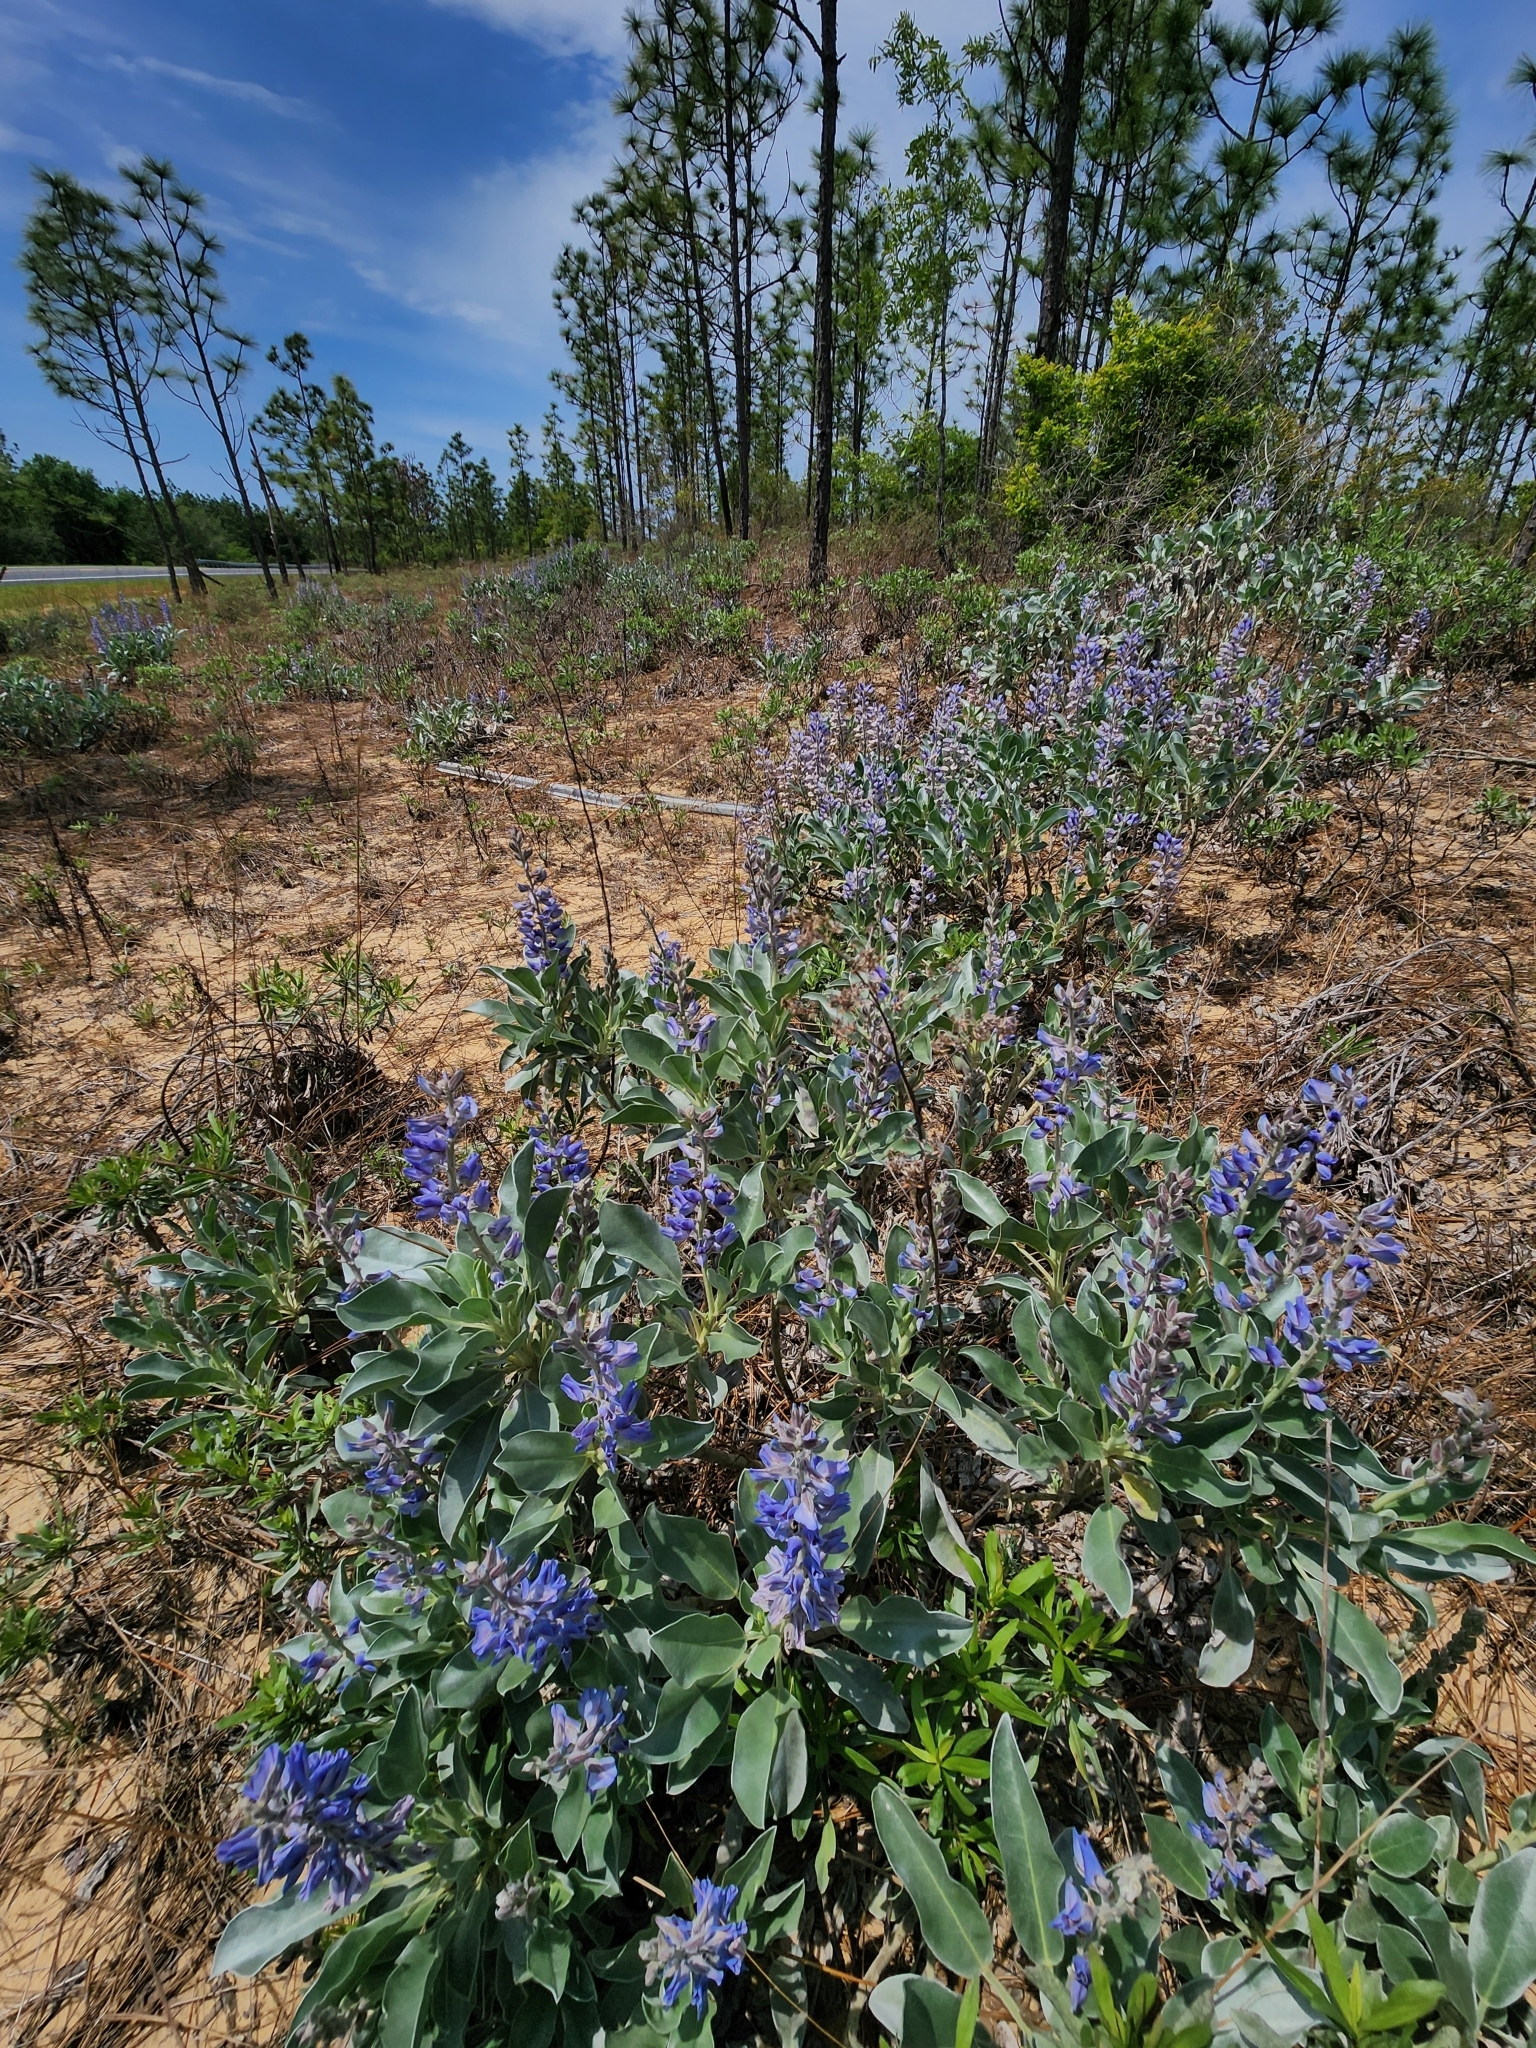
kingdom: Plantae
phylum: Tracheophyta
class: Magnoliopsida
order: Fabales
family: Fabaceae
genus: Lupinus
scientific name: Lupinus westianus
